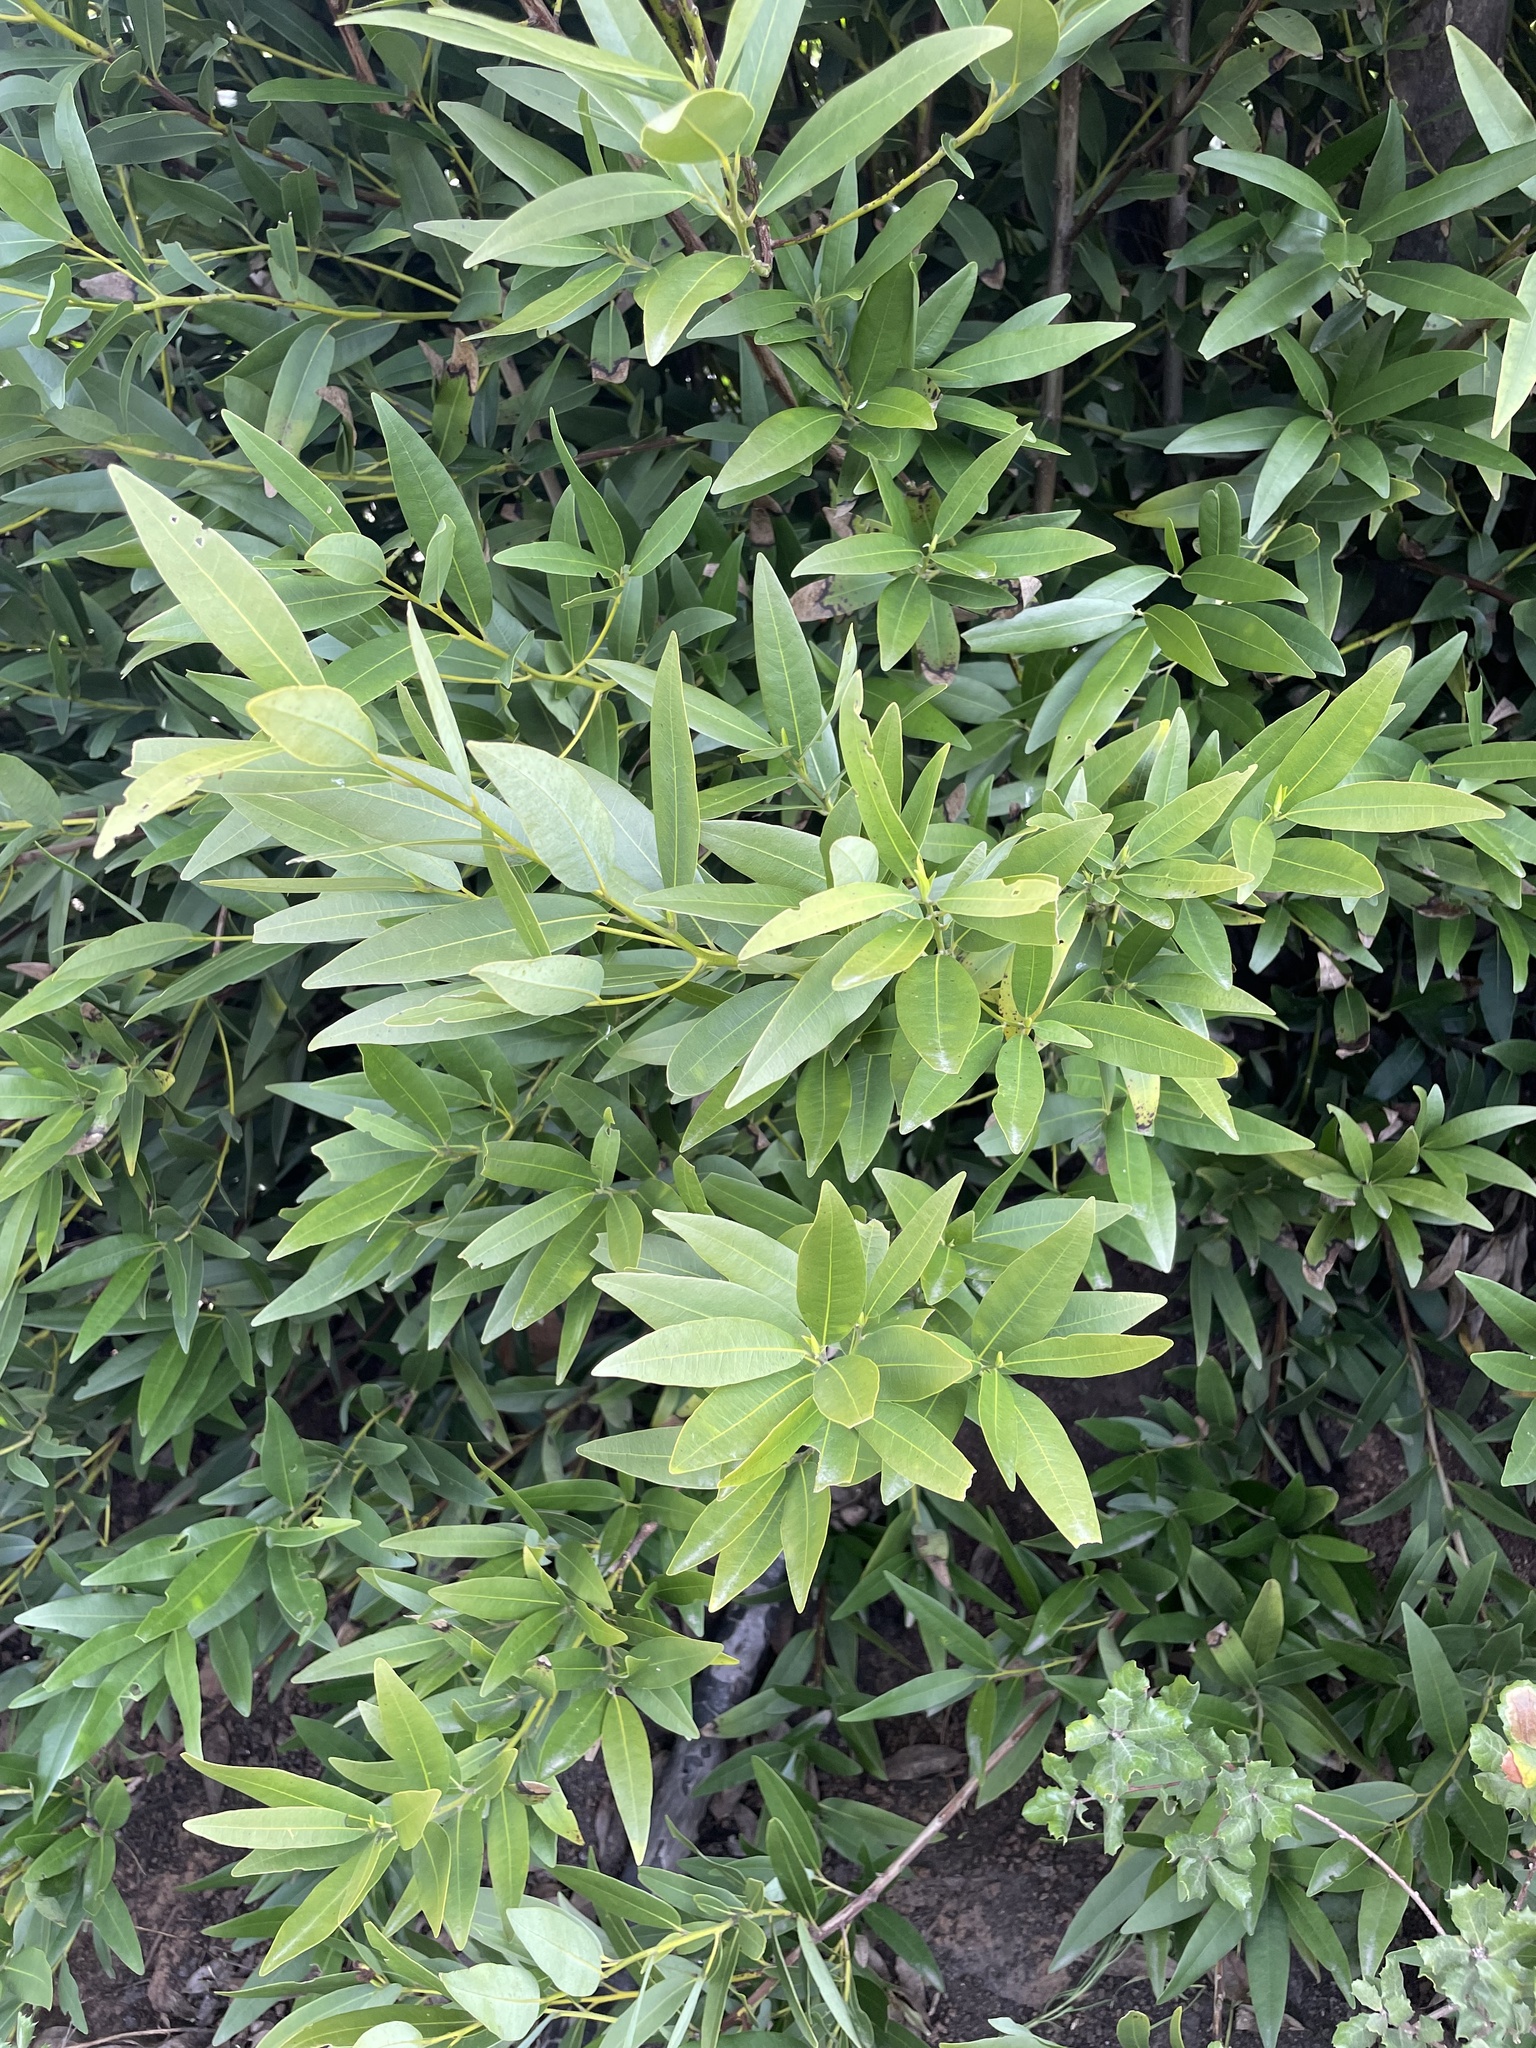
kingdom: Plantae
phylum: Tracheophyta
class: Magnoliopsida
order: Laurales
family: Lauraceae
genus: Umbellularia
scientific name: Umbellularia californica
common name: California bay
